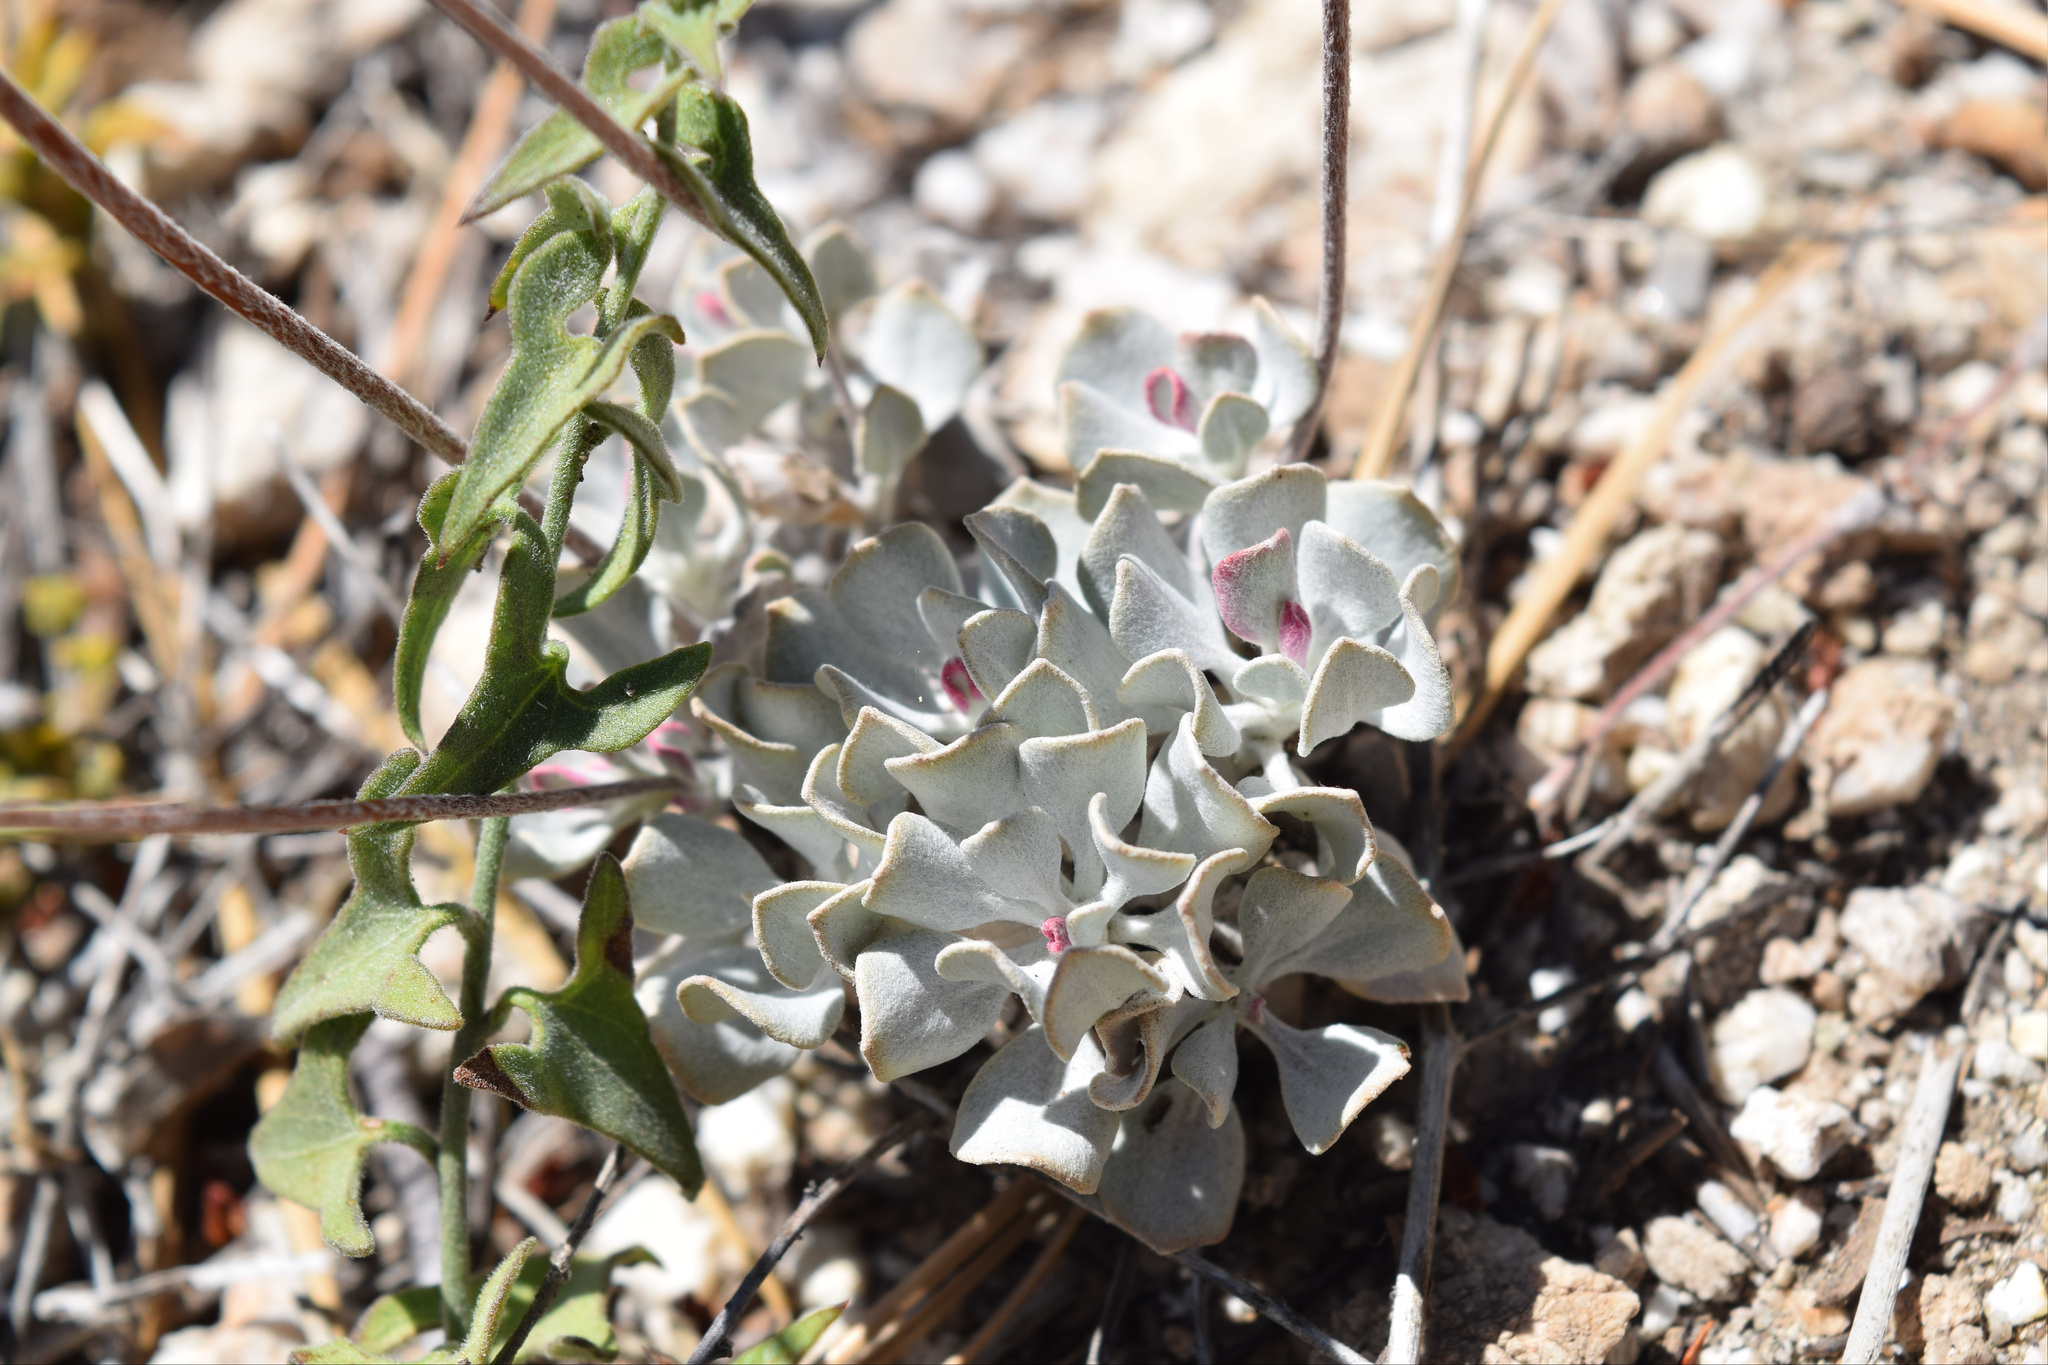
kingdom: Plantae
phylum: Tracheophyta
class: Magnoliopsida
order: Caryophyllales
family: Polygonaceae
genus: Eriogonum
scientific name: Eriogonum saxatile
